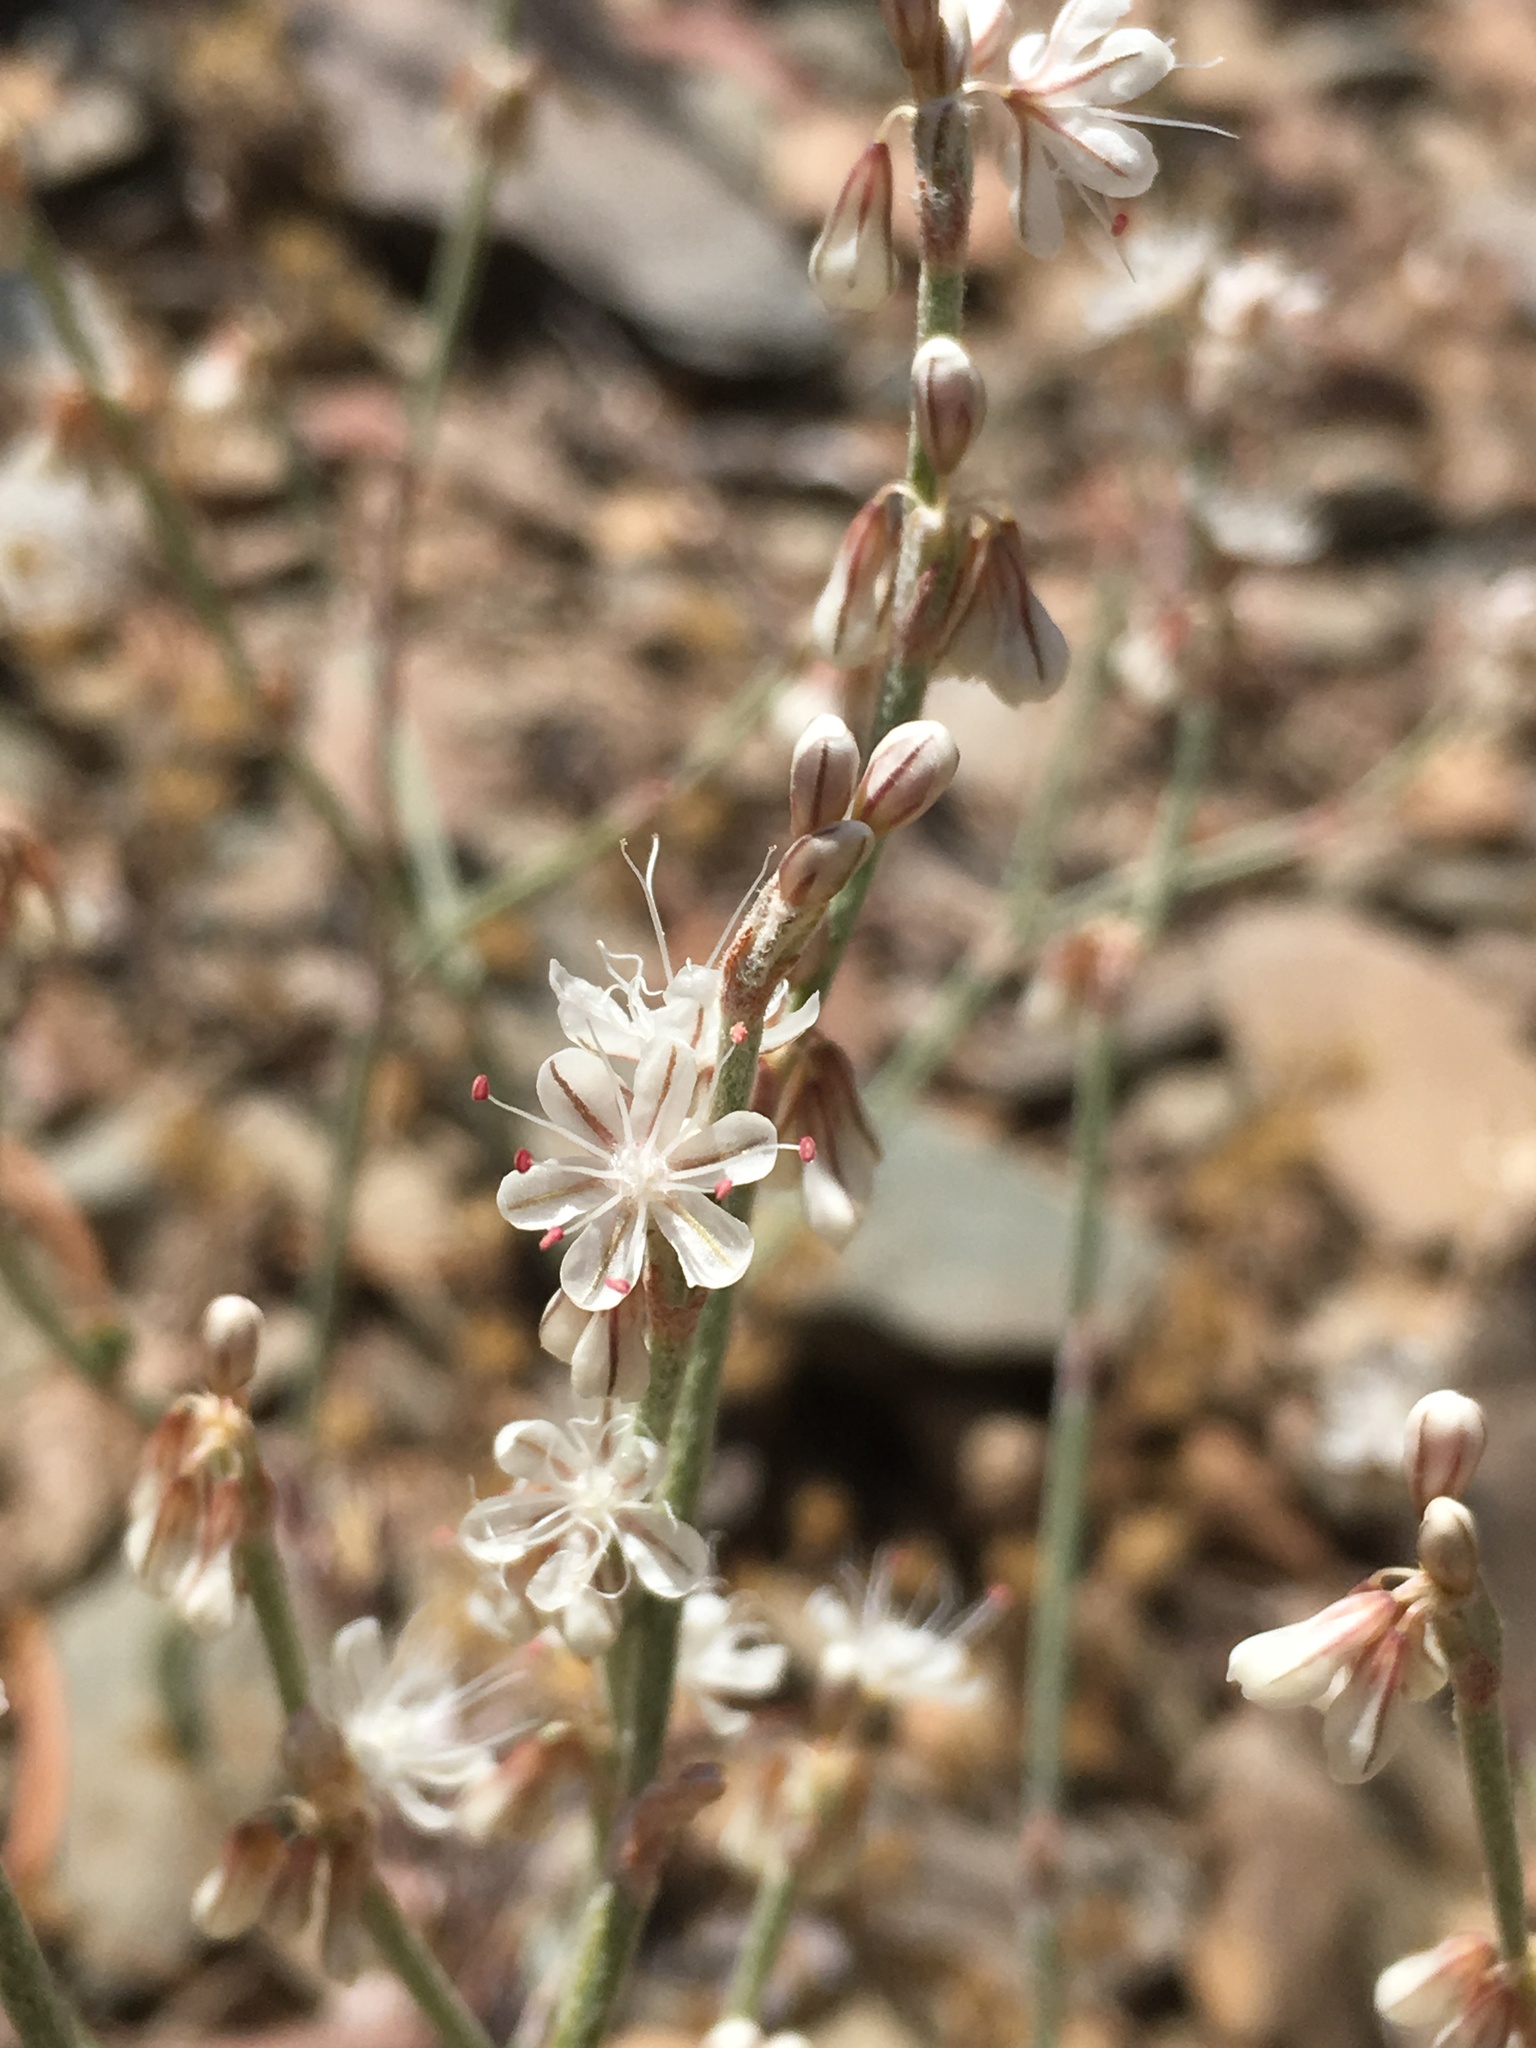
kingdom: Plantae
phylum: Tracheophyta
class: Magnoliopsida
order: Caryophyllales
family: Polygonaceae
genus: Eriogonum
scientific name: Eriogonum panamintense
